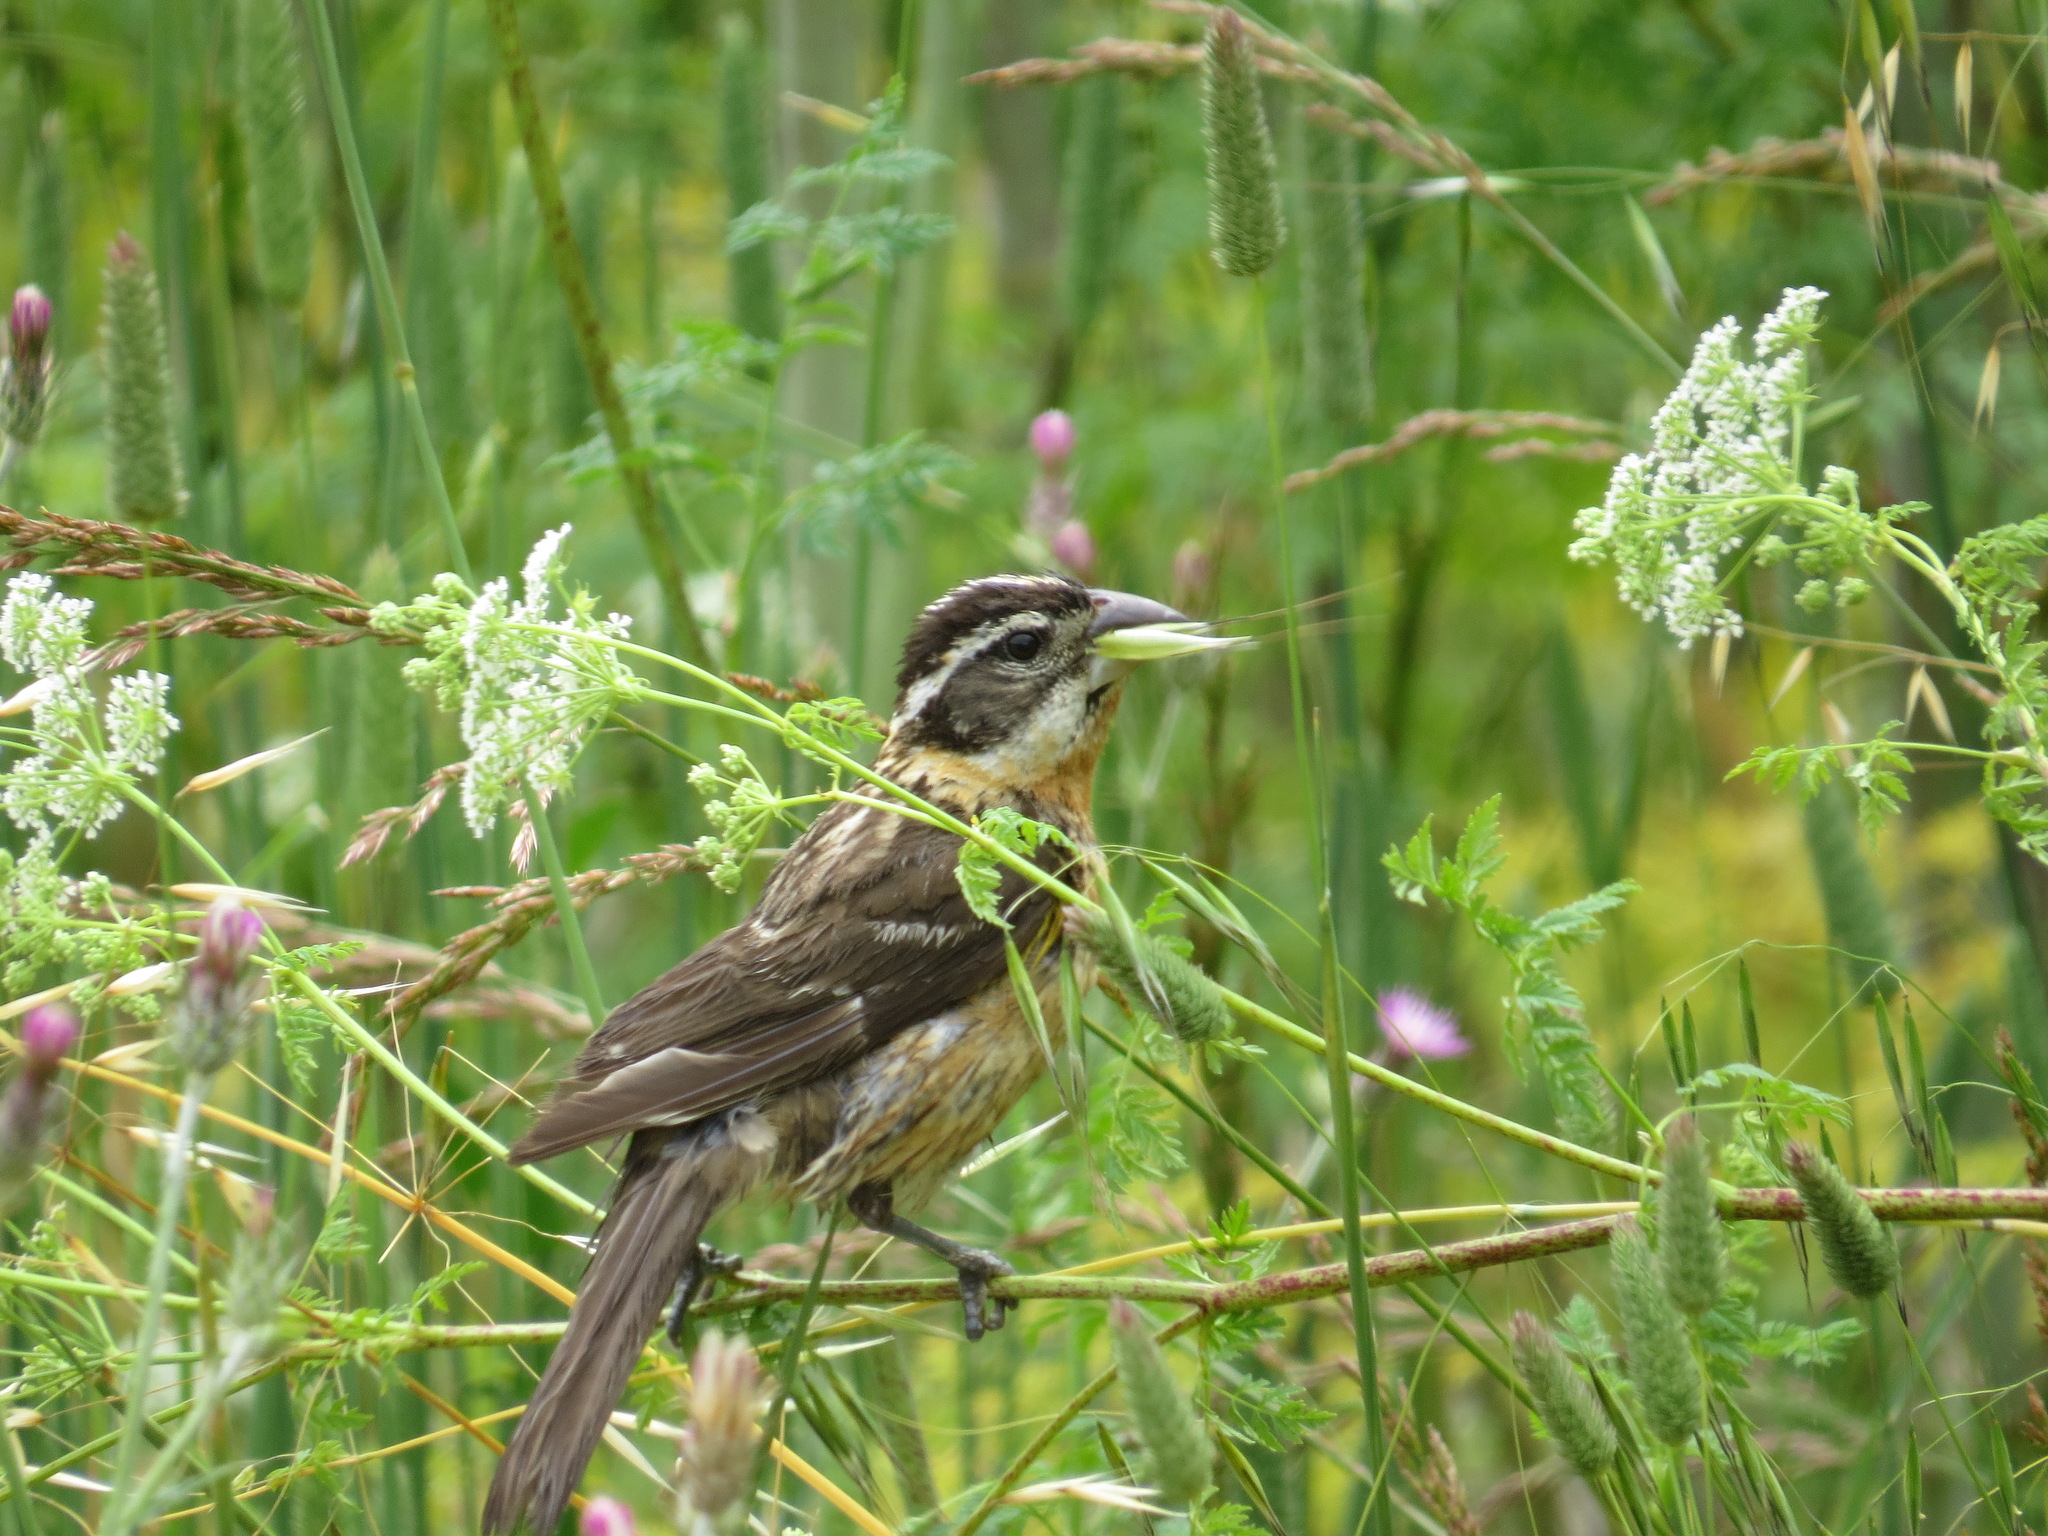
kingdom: Animalia
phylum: Chordata
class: Aves
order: Passeriformes
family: Cardinalidae
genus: Pheucticus
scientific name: Pheucticus melanocephalus
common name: Black-headed grosbeak
